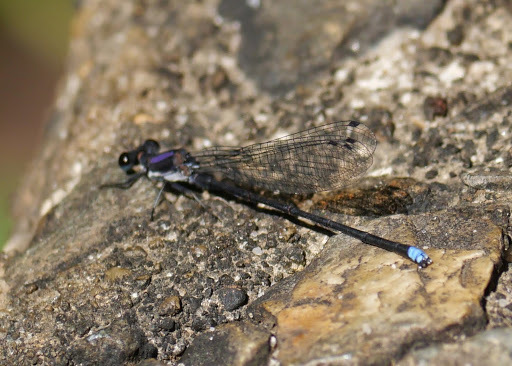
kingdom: Animalia
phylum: Arthropoda
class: Insecta
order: Odonata
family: Coenagrionidae
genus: Argia
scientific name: Argia tibialis
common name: Blue-tipped dancer
